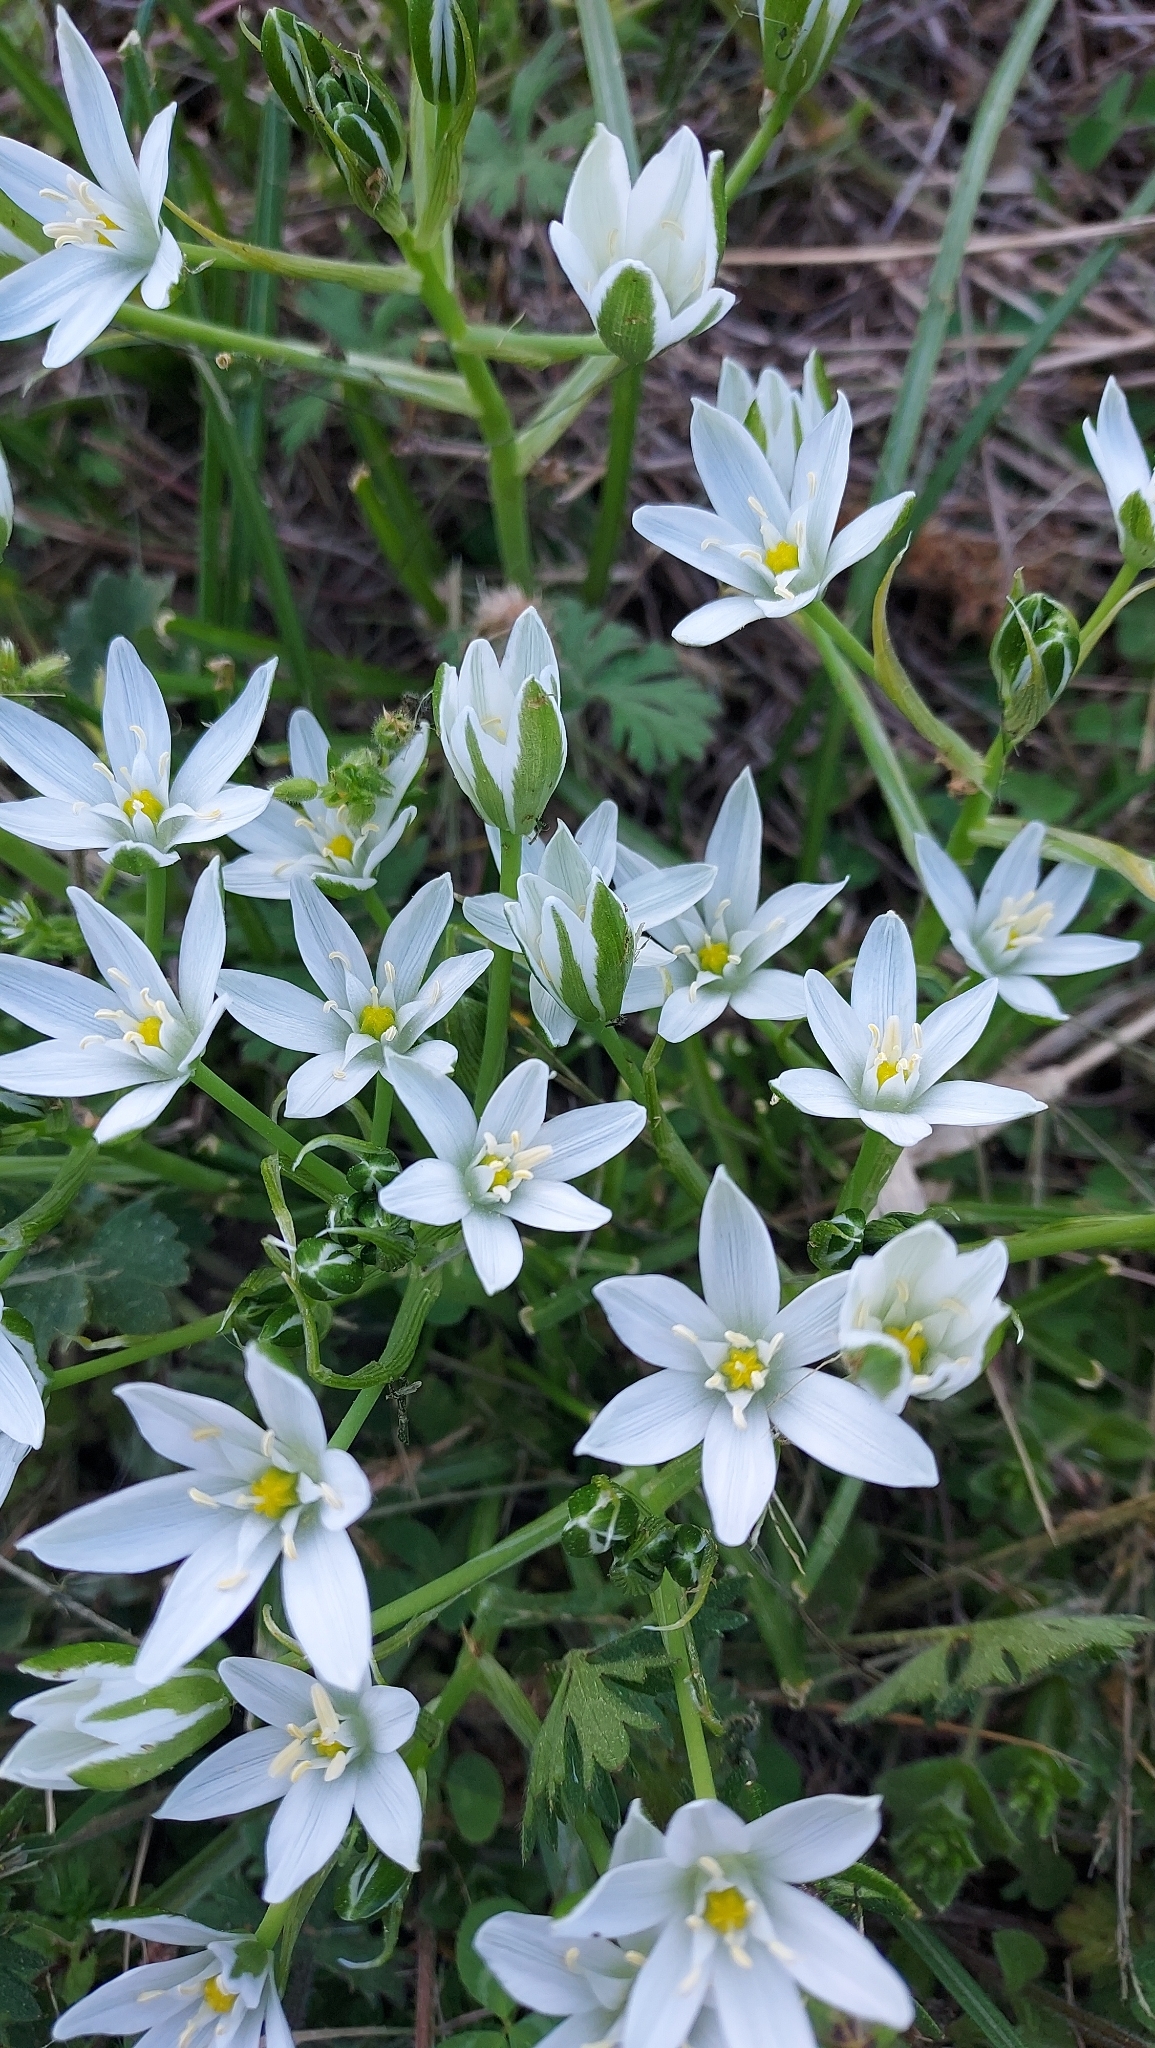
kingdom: Plantae
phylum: Tracheophyta
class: Liliopsida
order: Asparagales
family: Asparagaceae
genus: Ornithogalum
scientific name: Ornithogalum umbellatum
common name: Garden star-of-bethlehem
